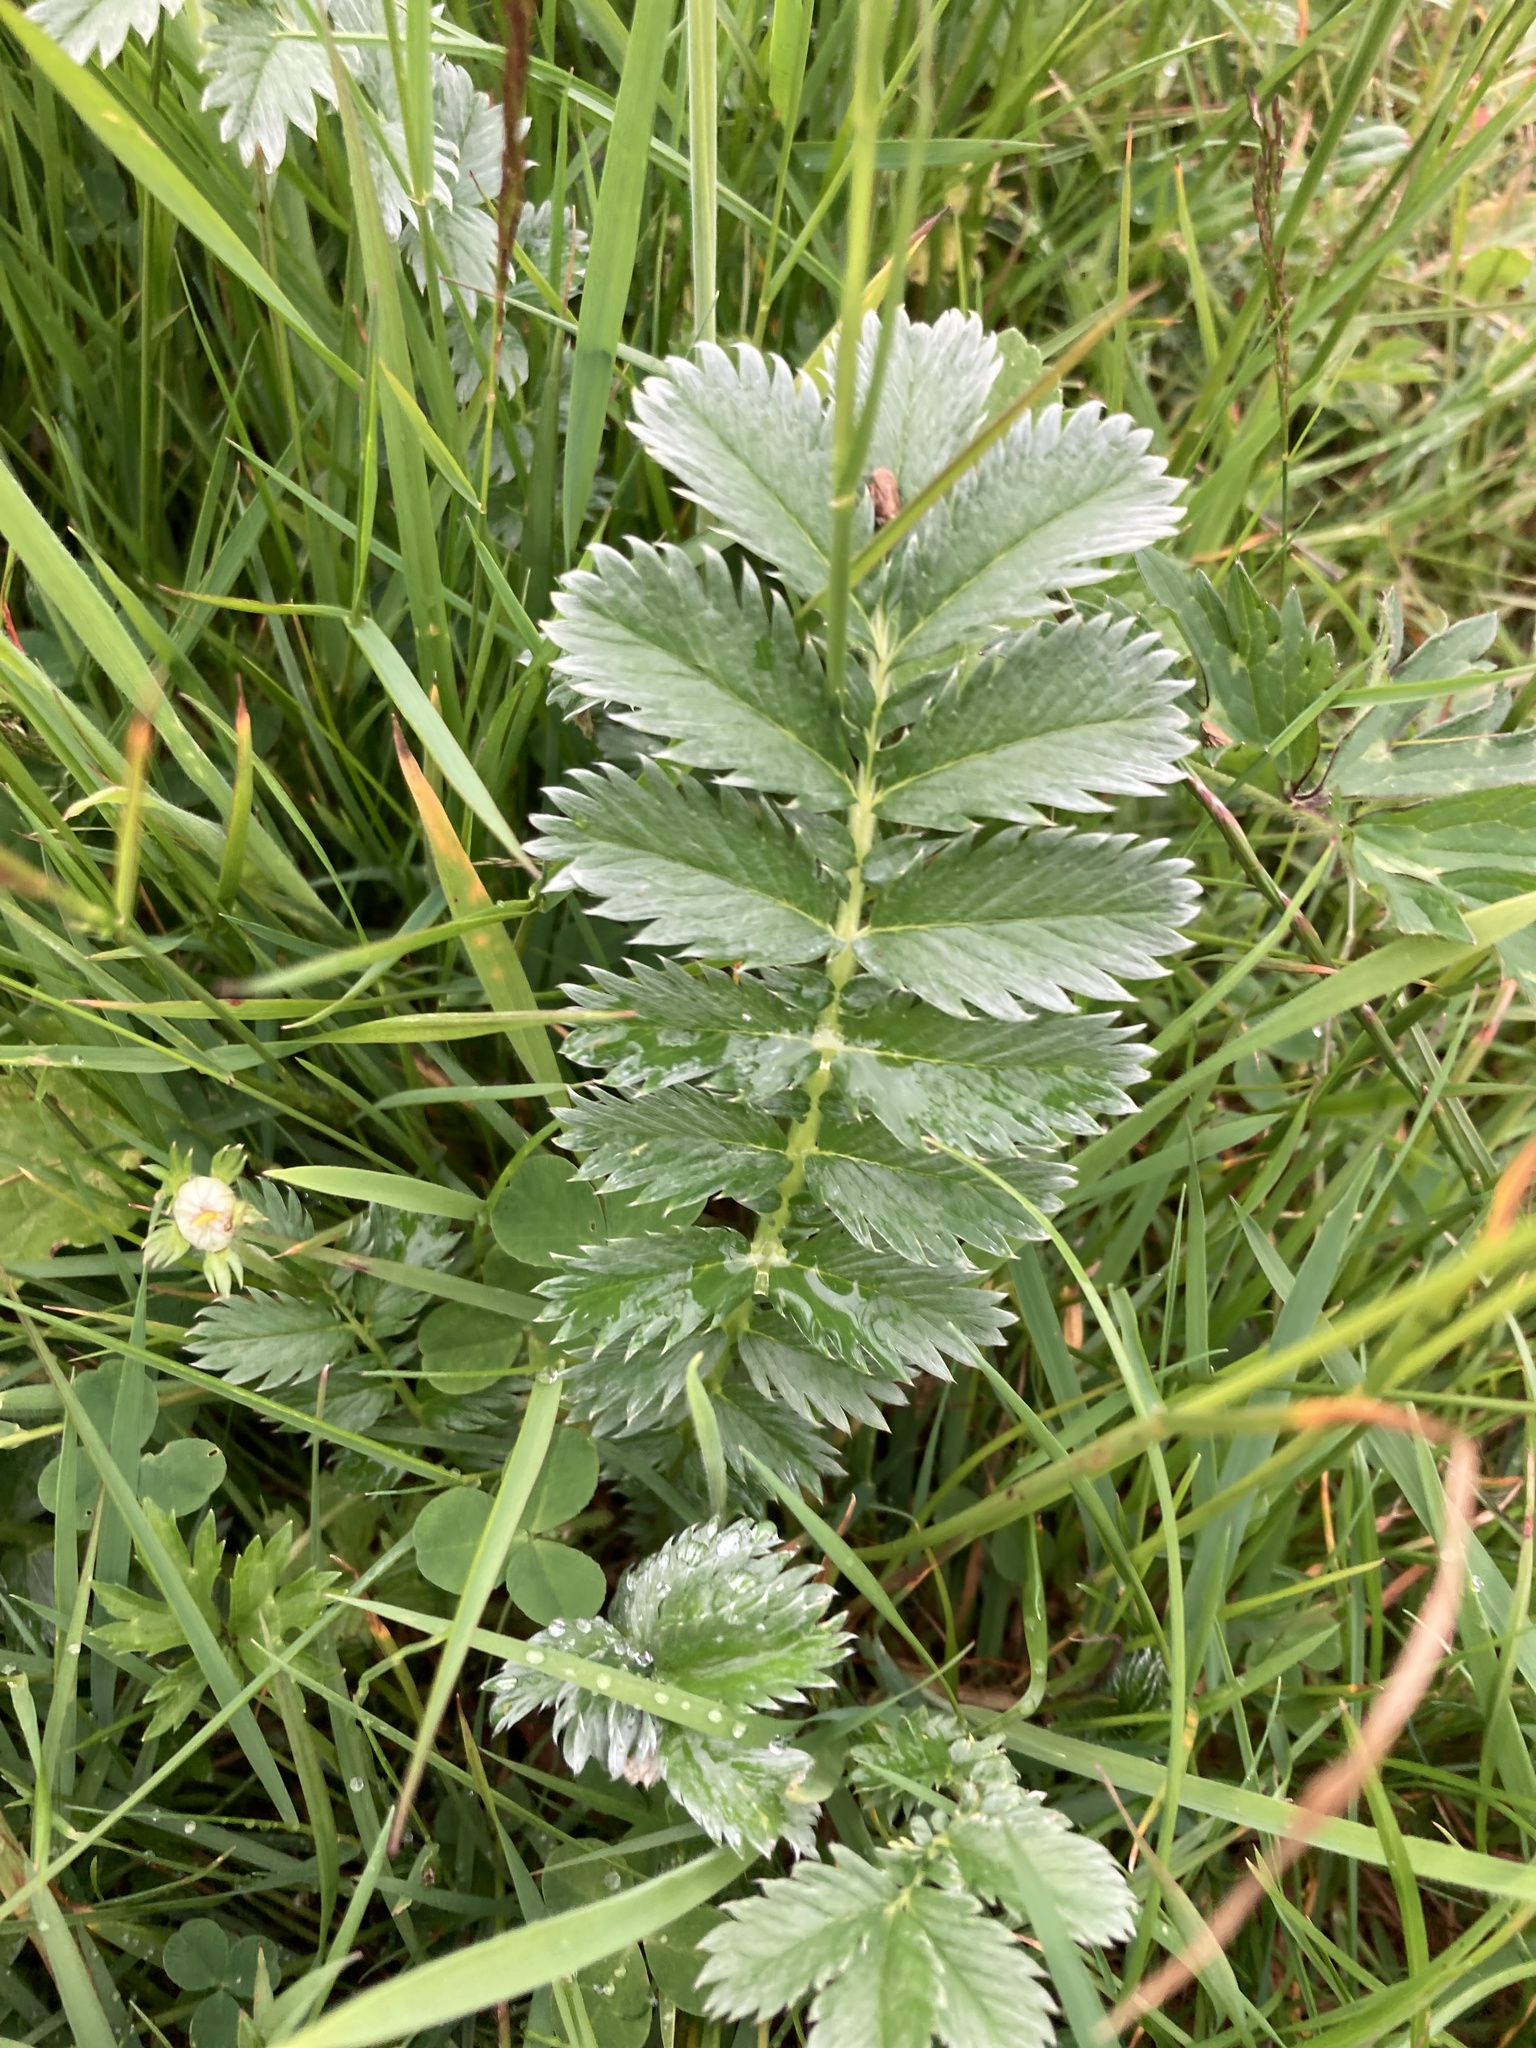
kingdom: Plantae
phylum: Tracheophyta
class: Magnoliopsida
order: Rosales
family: Rosaceae
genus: Argentina
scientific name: Argentina anserina
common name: Common silverweed
